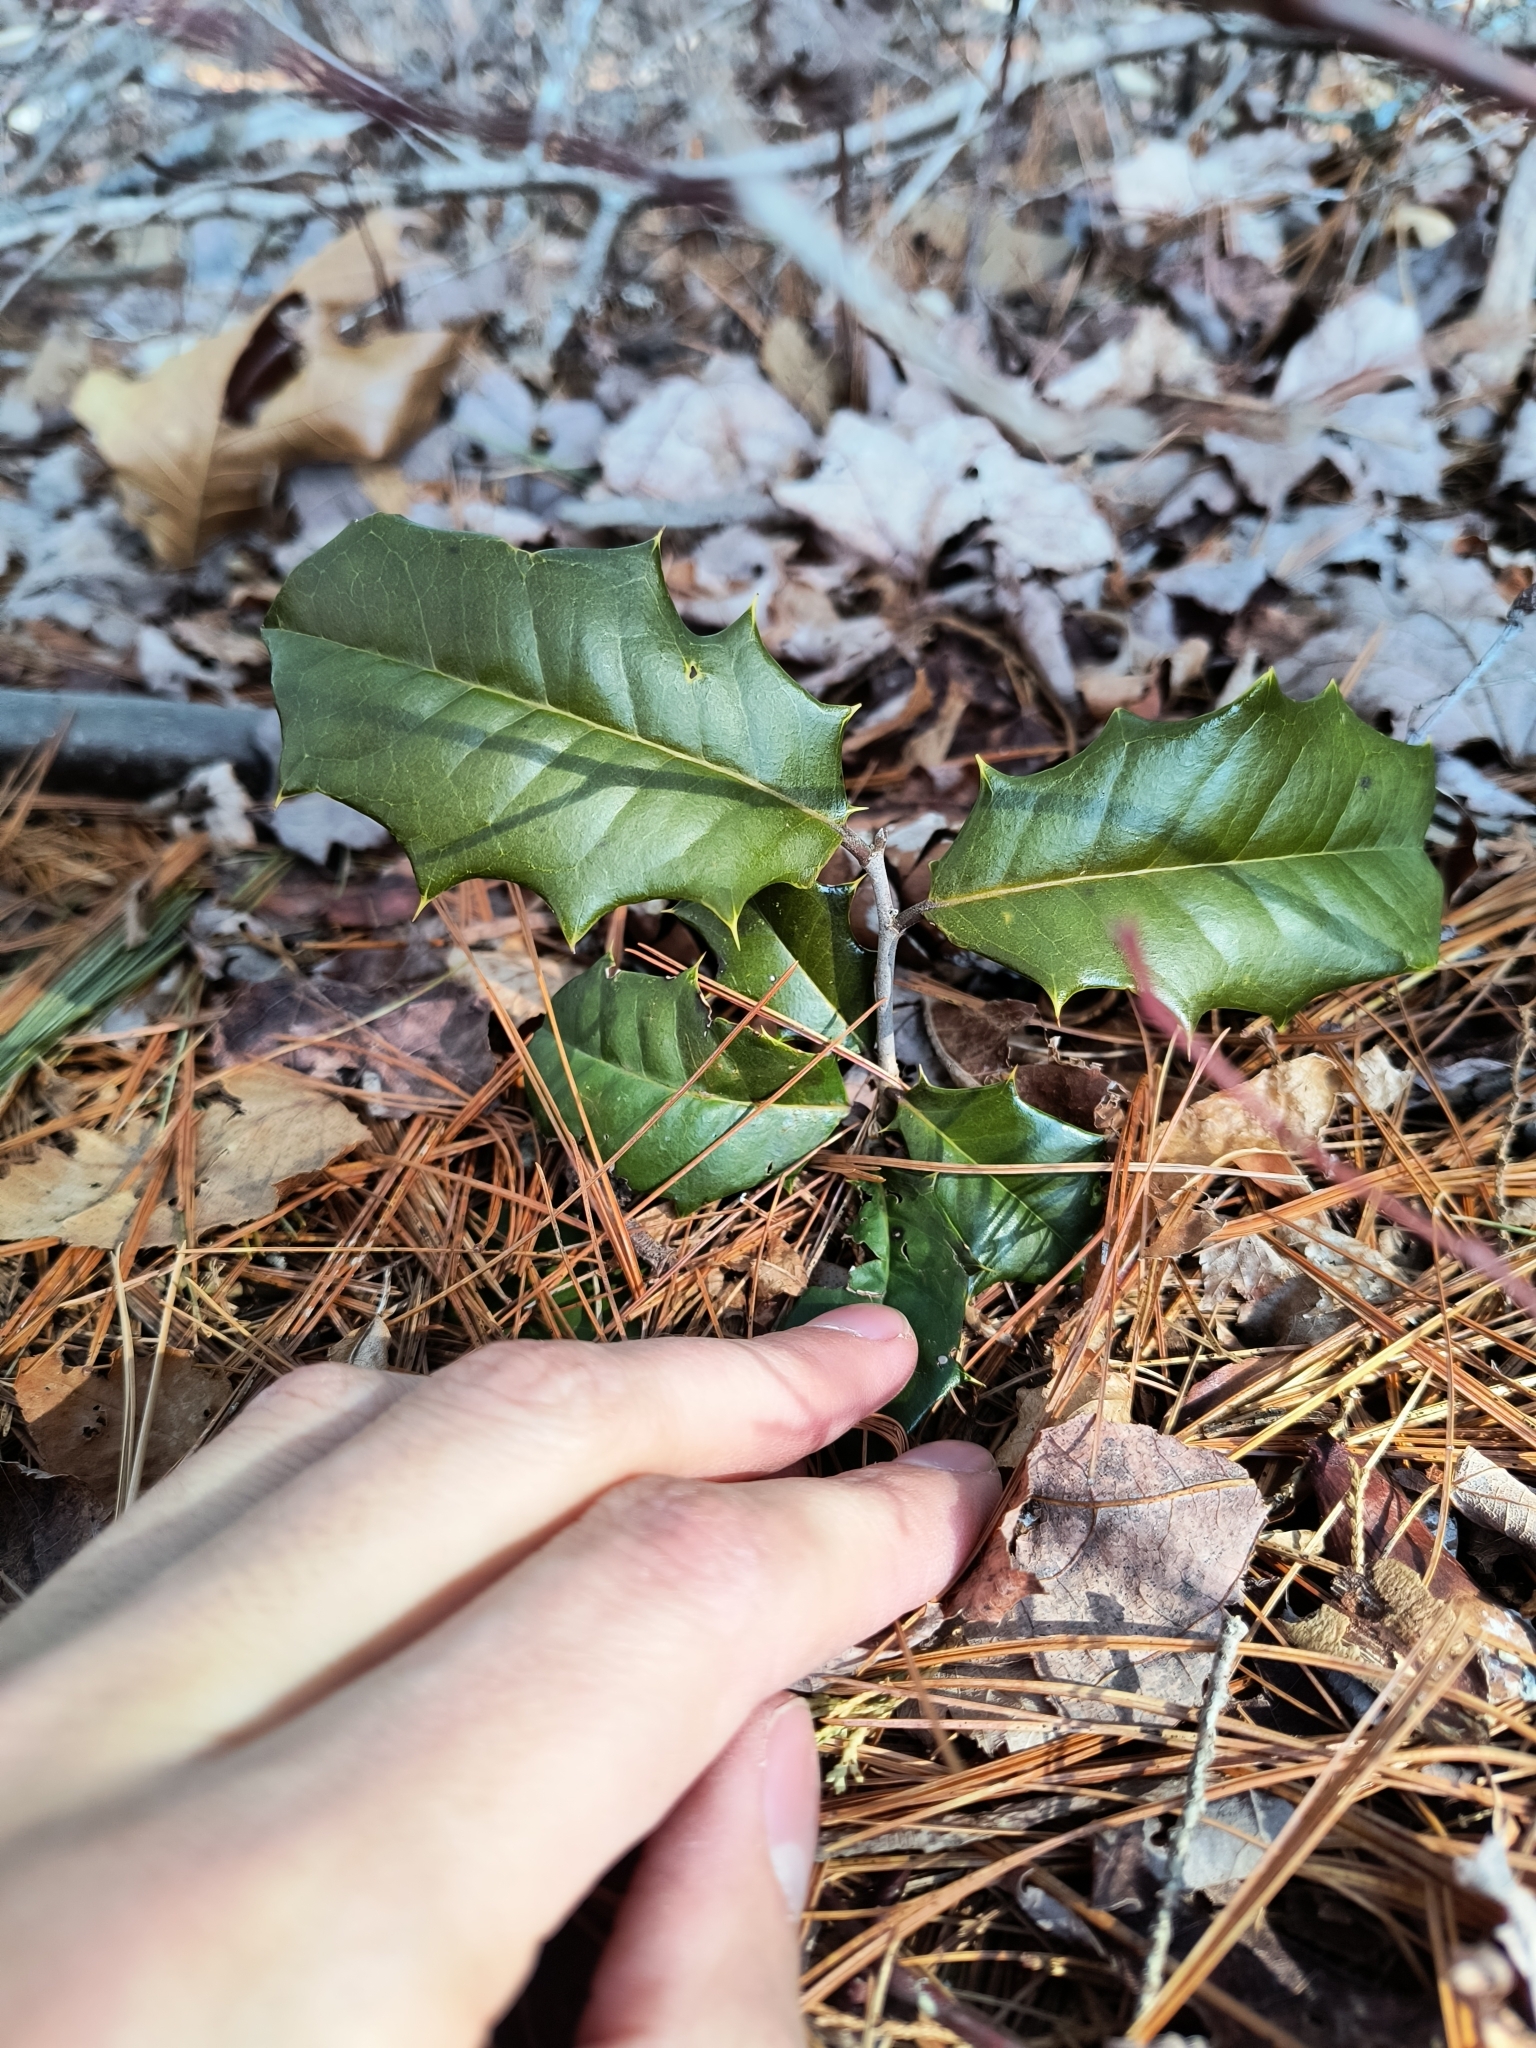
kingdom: Plantae
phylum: Tracheophyta
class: Magnoliopsida
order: Aquifoliales
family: Aquifoliaceae
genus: Ilex
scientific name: Ilex opaca
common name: American holly
